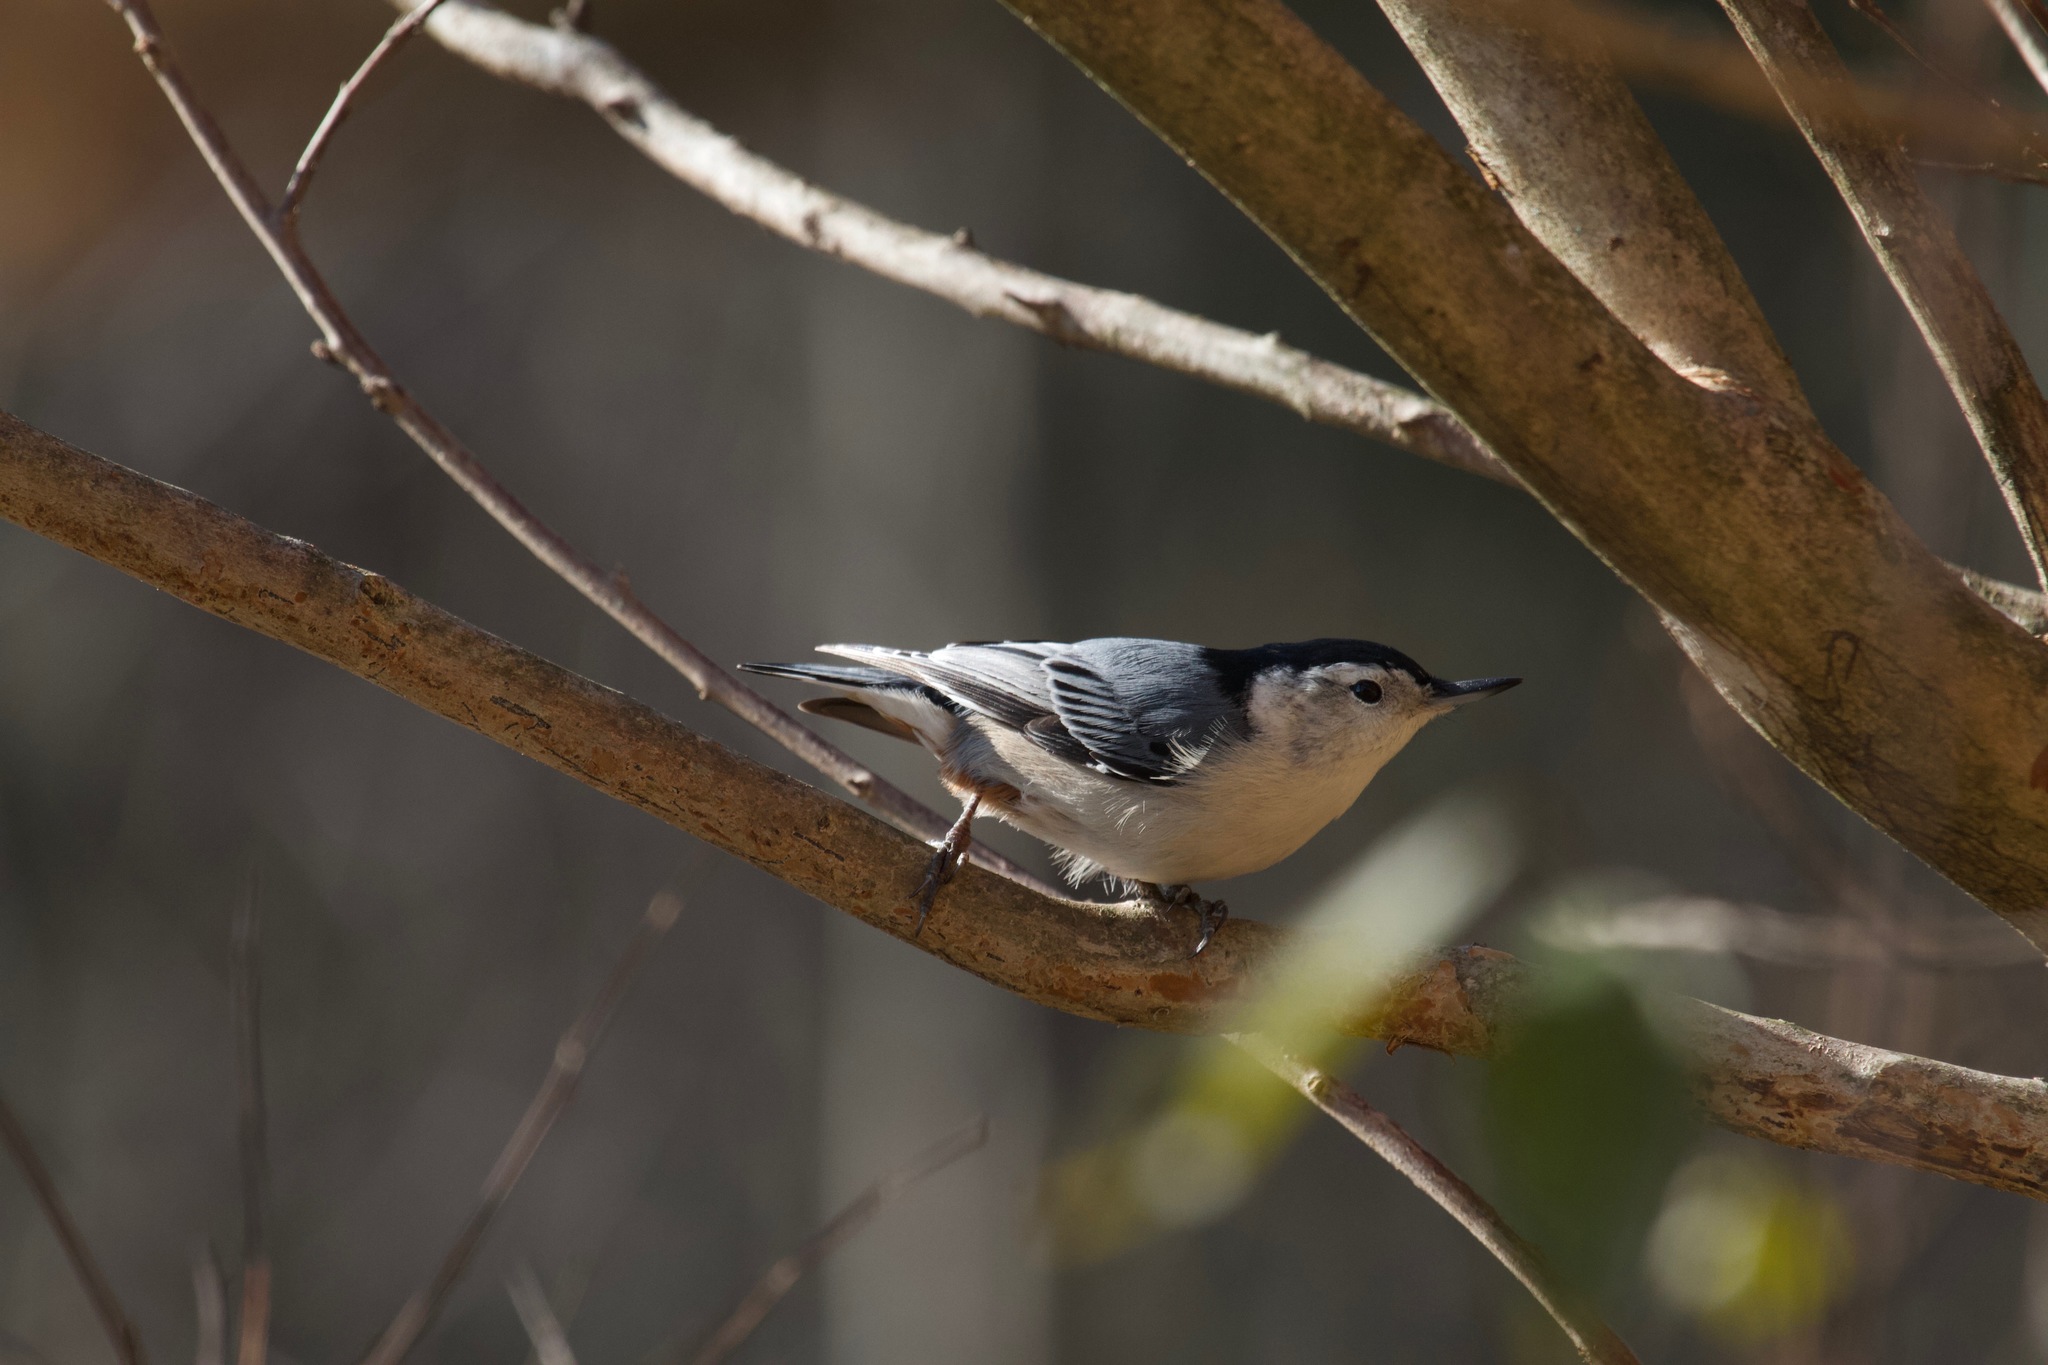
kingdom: Animalia
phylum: Chordata
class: Aves
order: Passeriformes
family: Sittidae
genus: Sitta
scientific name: Sitta carolinensis
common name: White-breasted nuthatch
